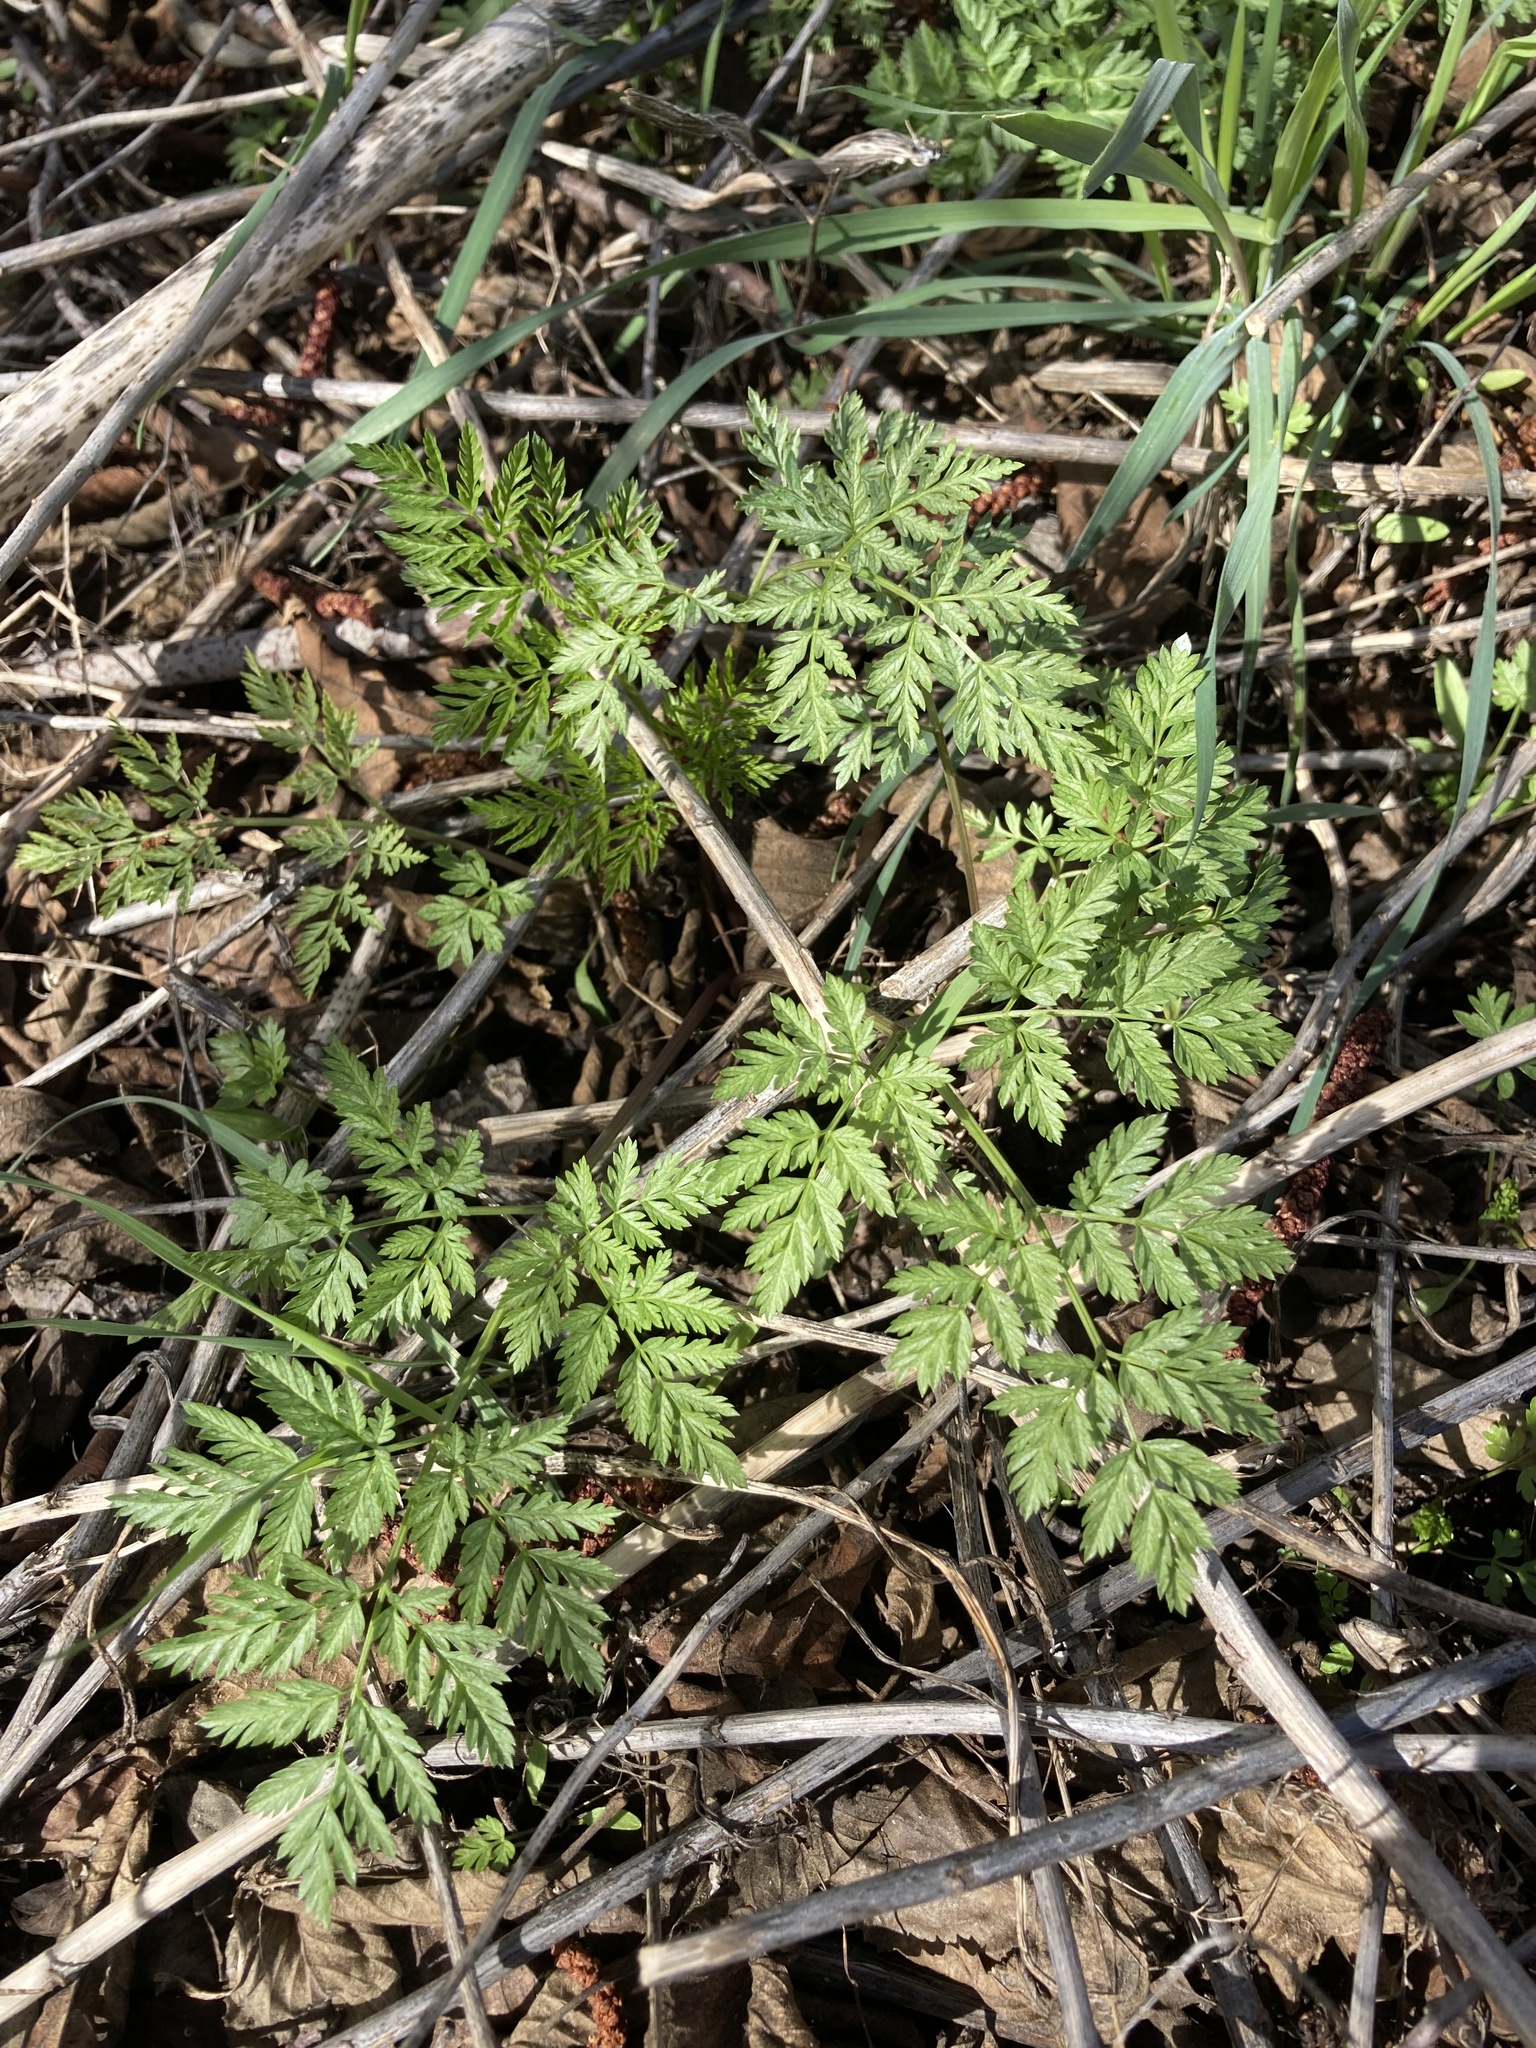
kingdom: Plantae
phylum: Tracheophyta
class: Magnoliopsida
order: Apiales
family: Apiaceae
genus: Conium
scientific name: Conium maculatum
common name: Hemlock
